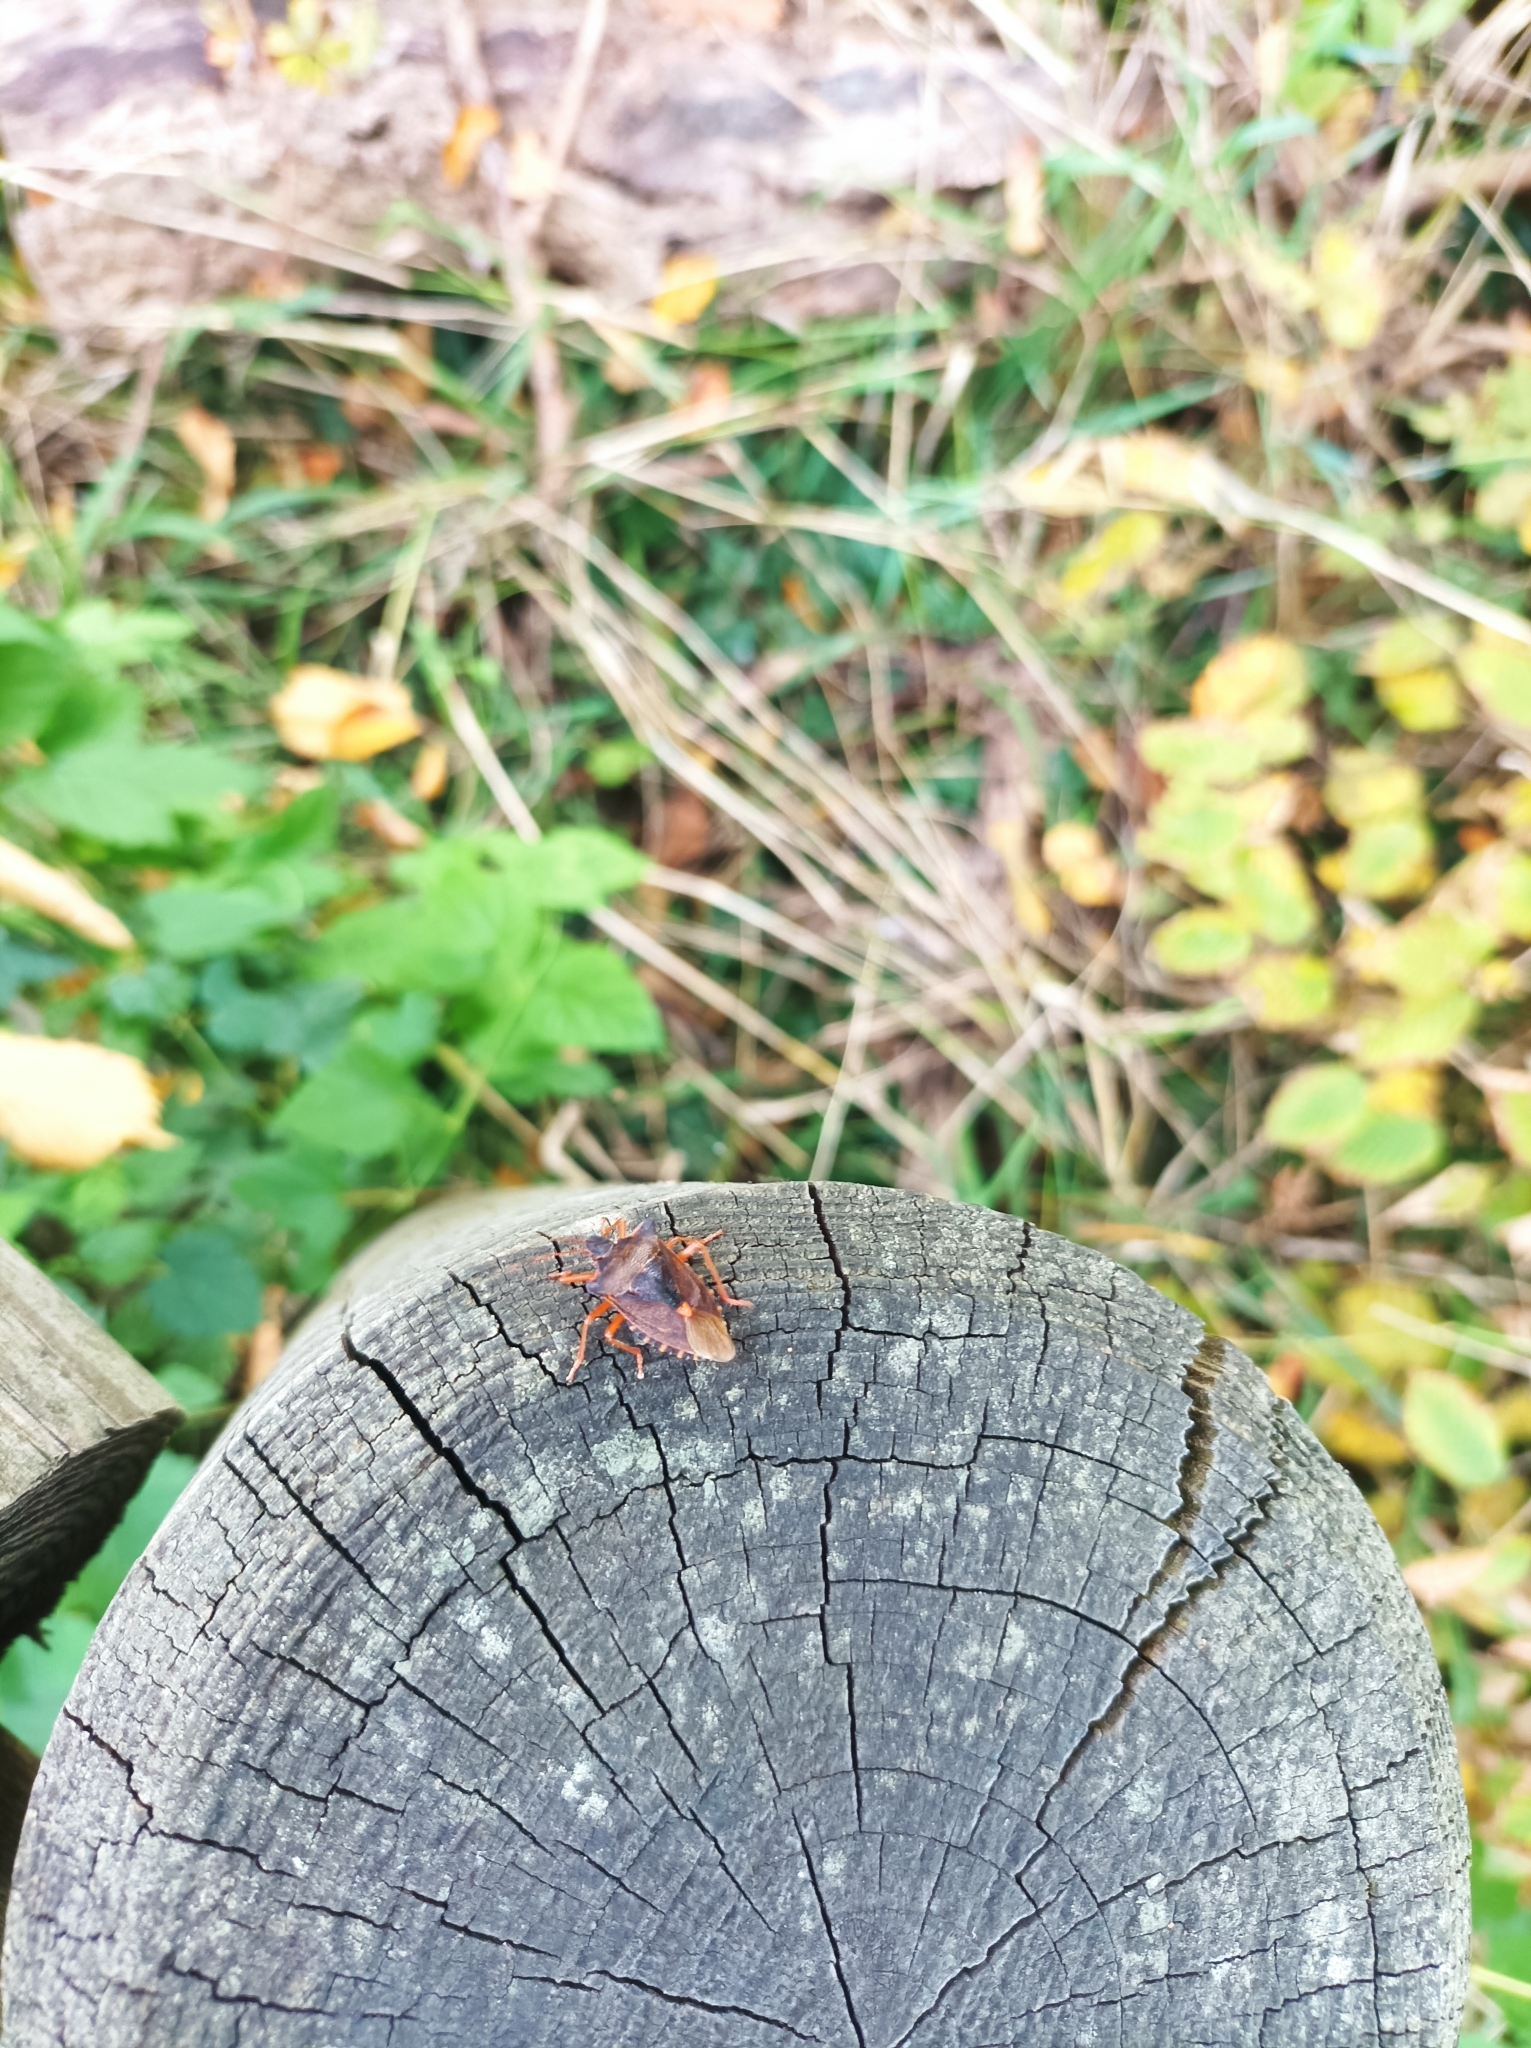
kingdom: Animalia
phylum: Arthropoda
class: Insecta
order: Hemiptera
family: Pentatomidae
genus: Pentatoma
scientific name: Pentatoma rufipes
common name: Forest bug
